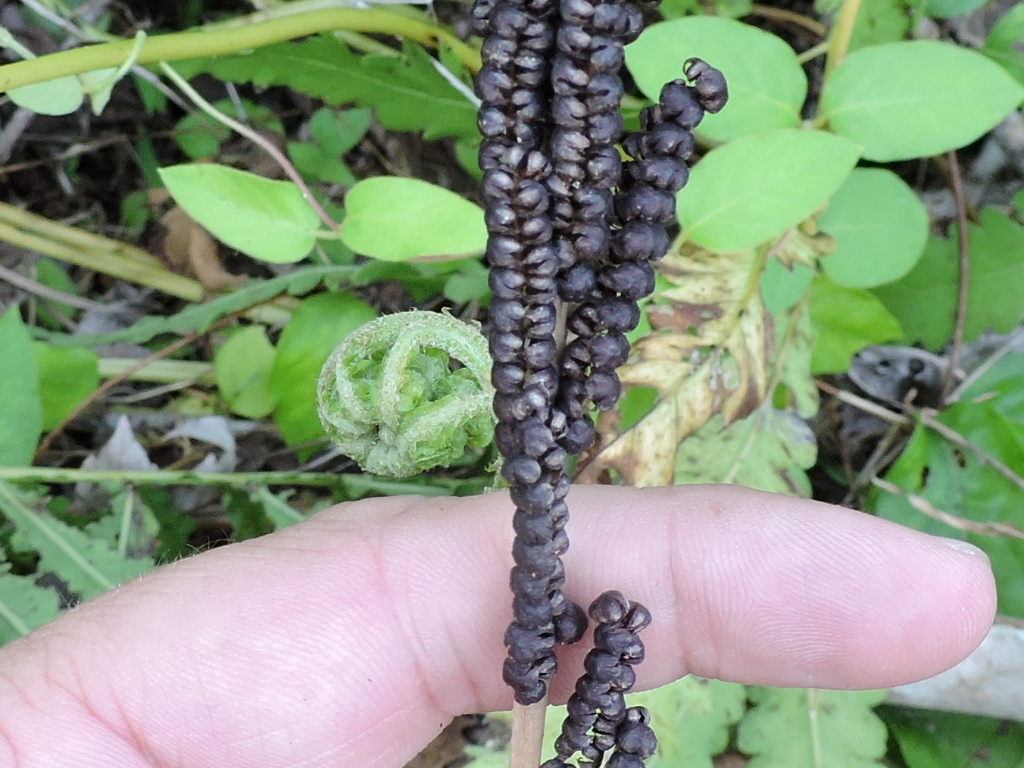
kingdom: Plantae
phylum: Tracheophyta
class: Polypodiopsida
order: Polypodiales
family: Onocleaceae
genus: Onoclea
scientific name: Onoclea sensibilis
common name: Sensitive fern
